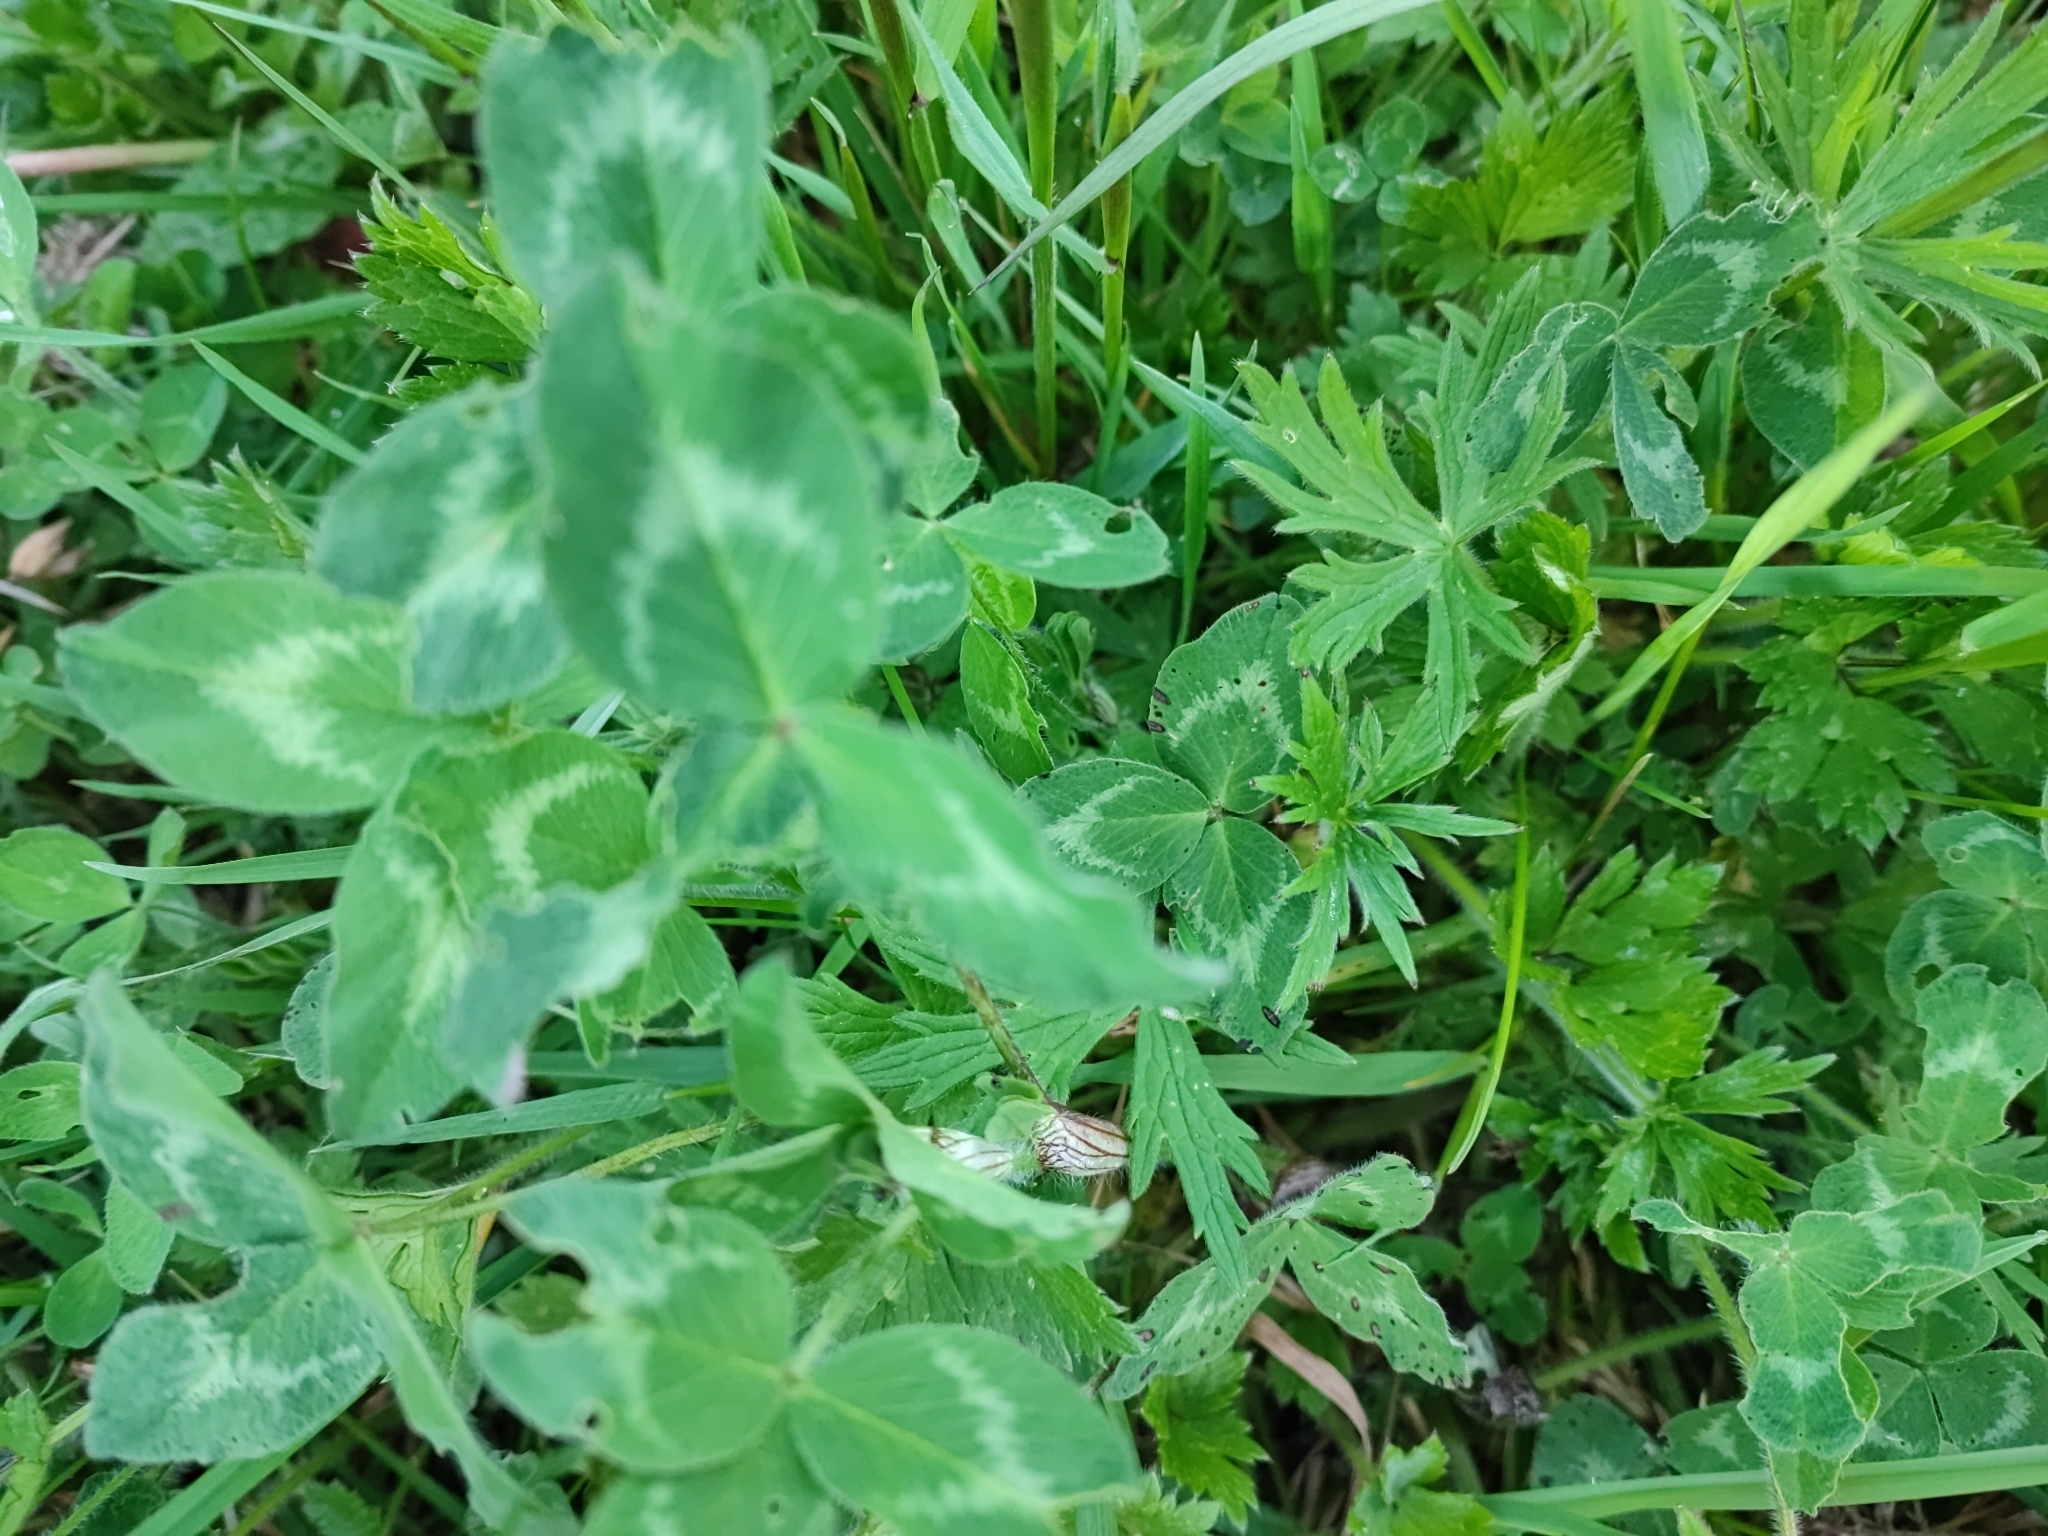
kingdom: Plantae
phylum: Tracheophyta
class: Magnoliopsida
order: Fabales
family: Fabaceae
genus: Trifolium
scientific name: Trifolium pratense
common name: Red clover
